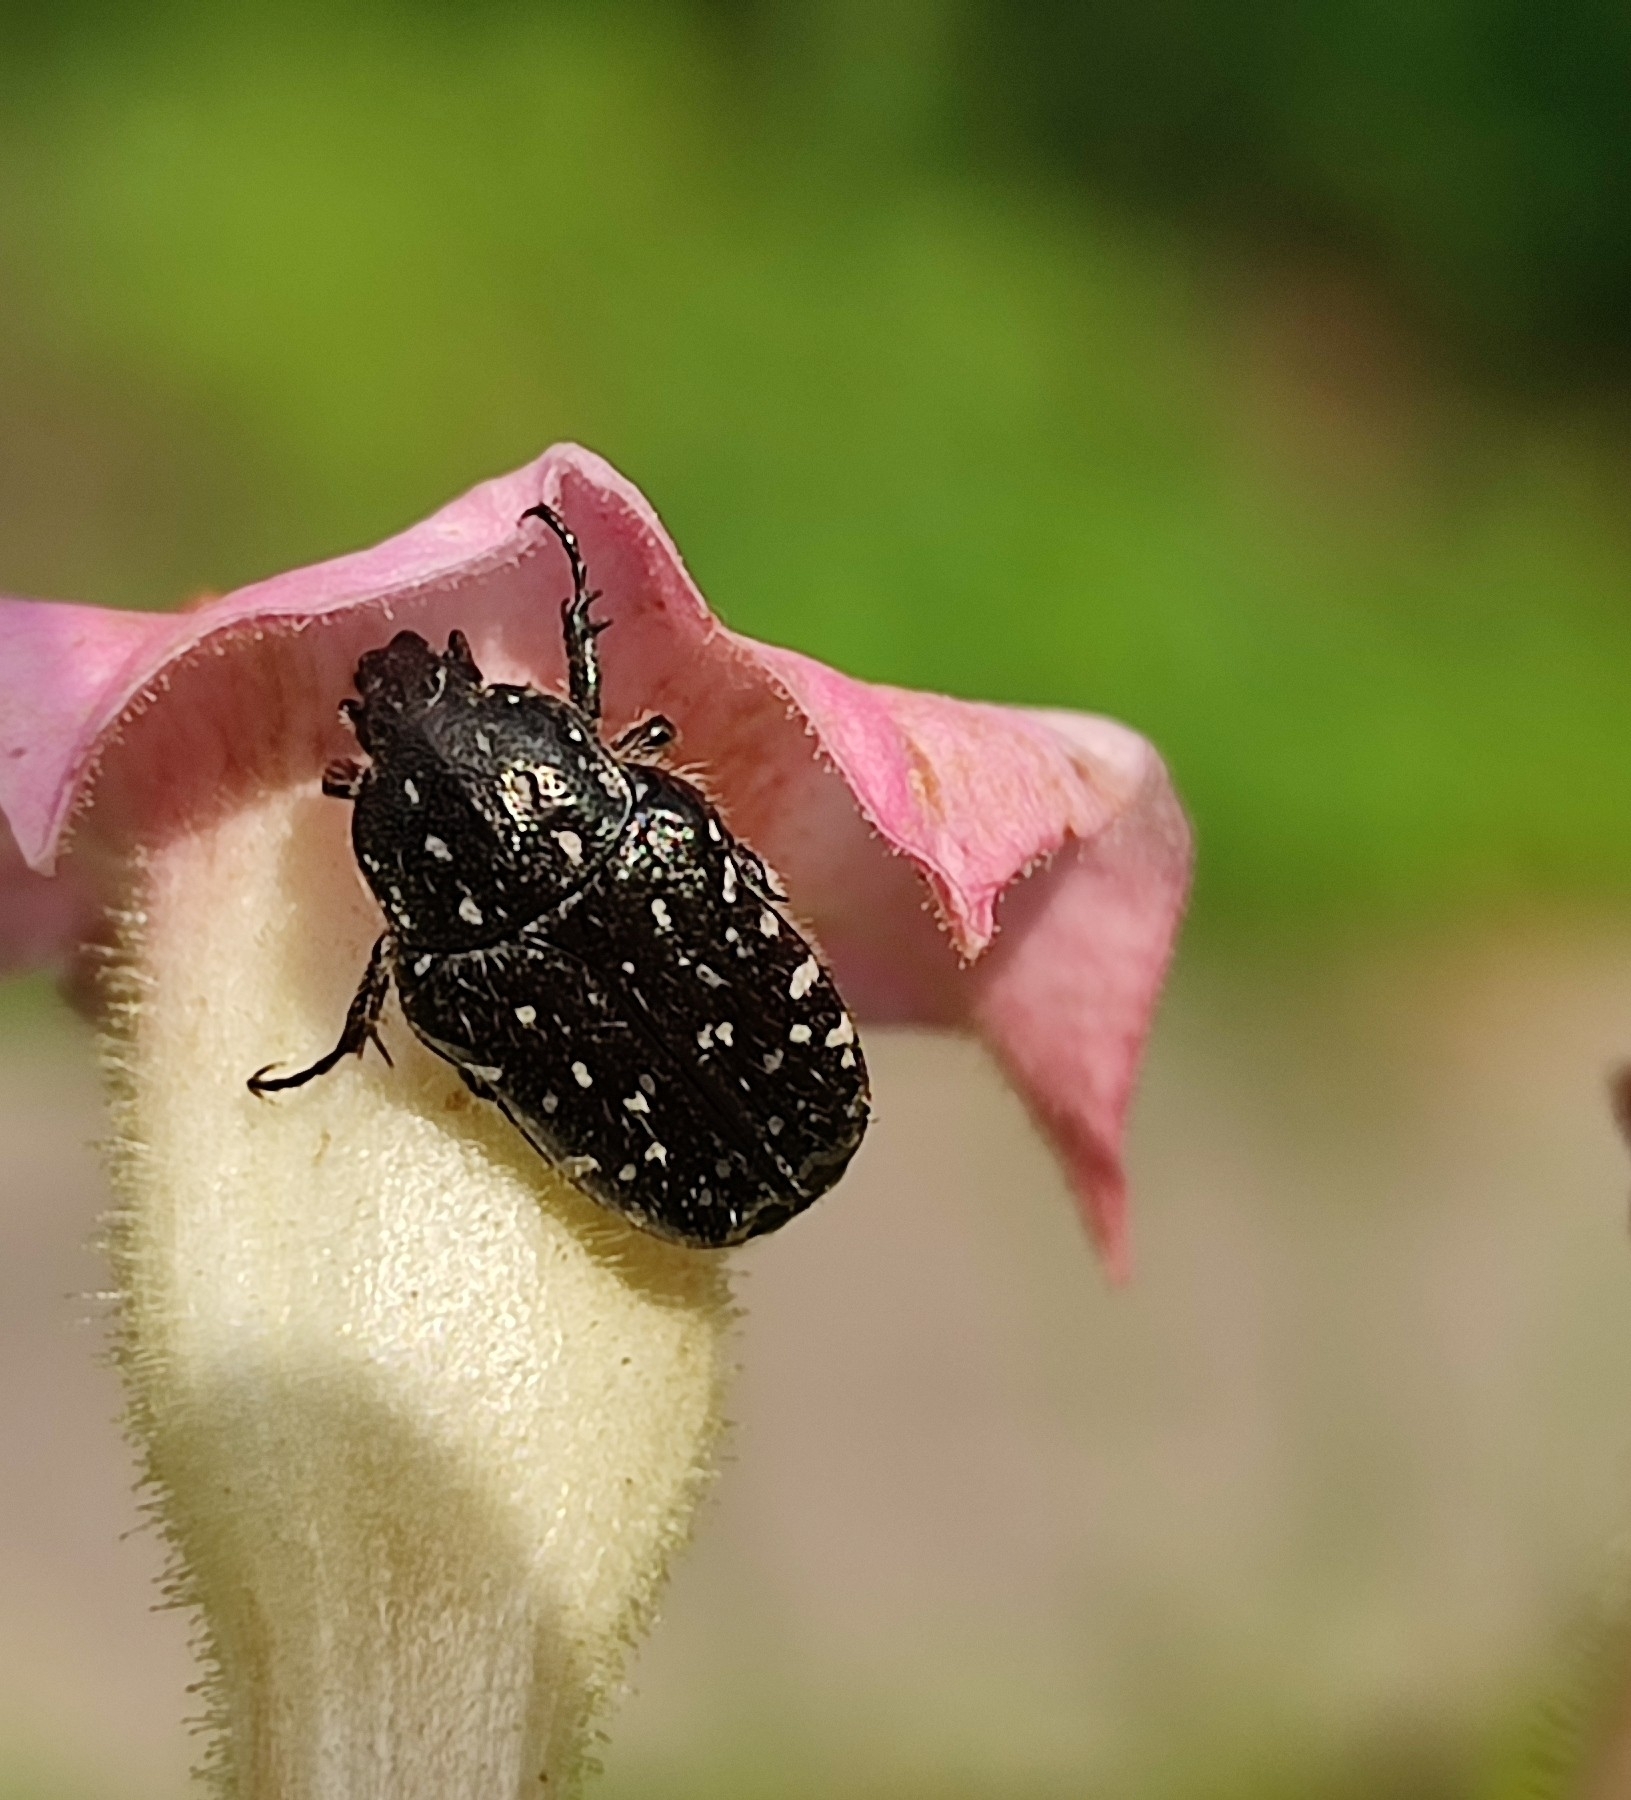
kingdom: Animalia
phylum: Arthropoda
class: Insecta
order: Coleoptera
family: Scarabaeidae
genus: Oxythyrea
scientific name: Oxythyrea funesta
